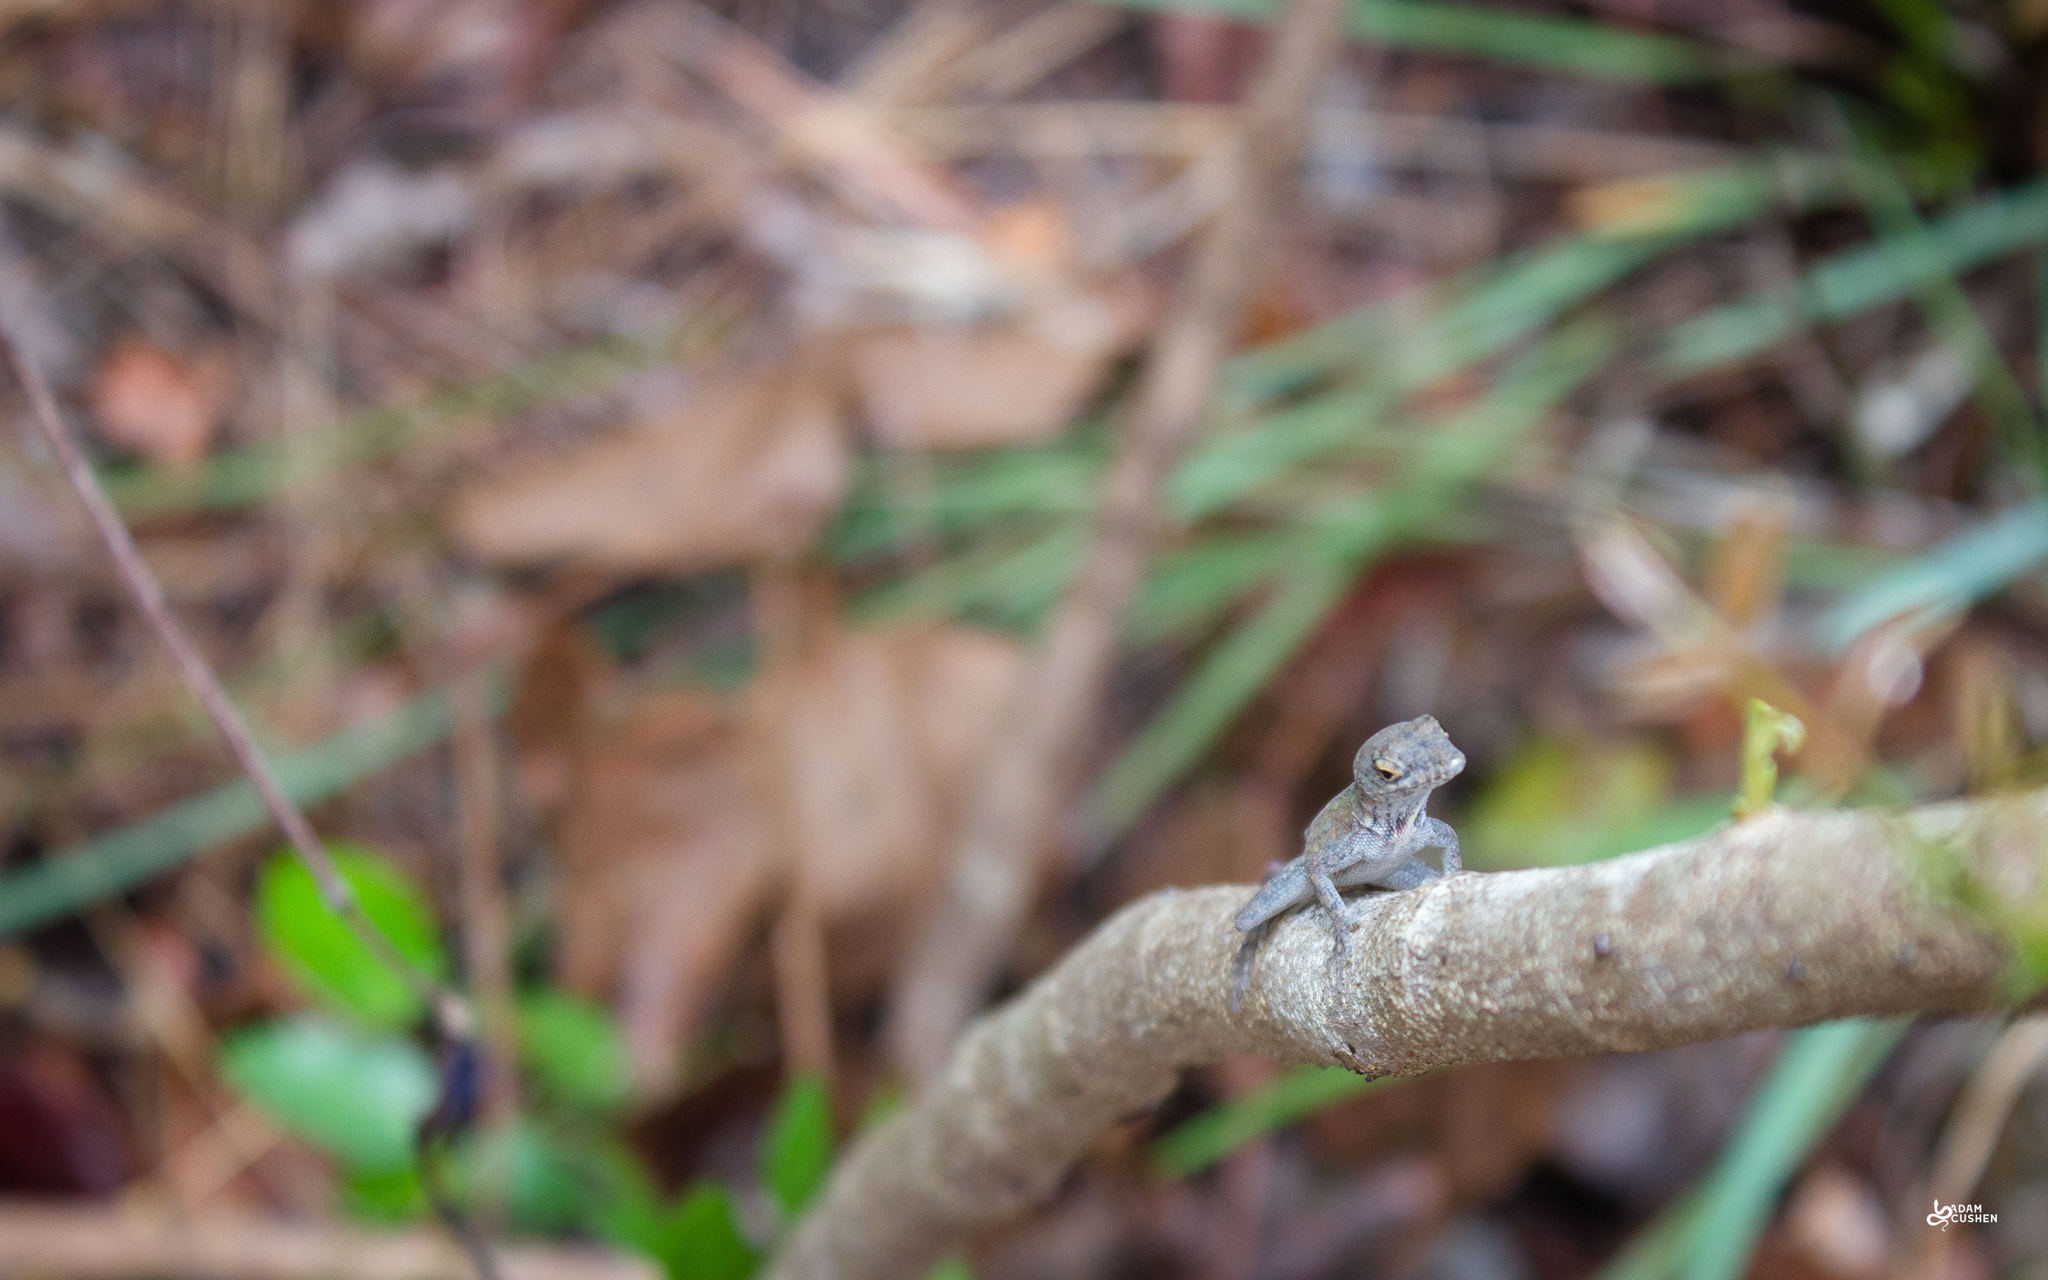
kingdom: Animalia
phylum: Chordata
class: Squamata
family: Dactyloidae
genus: Anolis
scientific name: Anolis sagrei
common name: Brown anole
